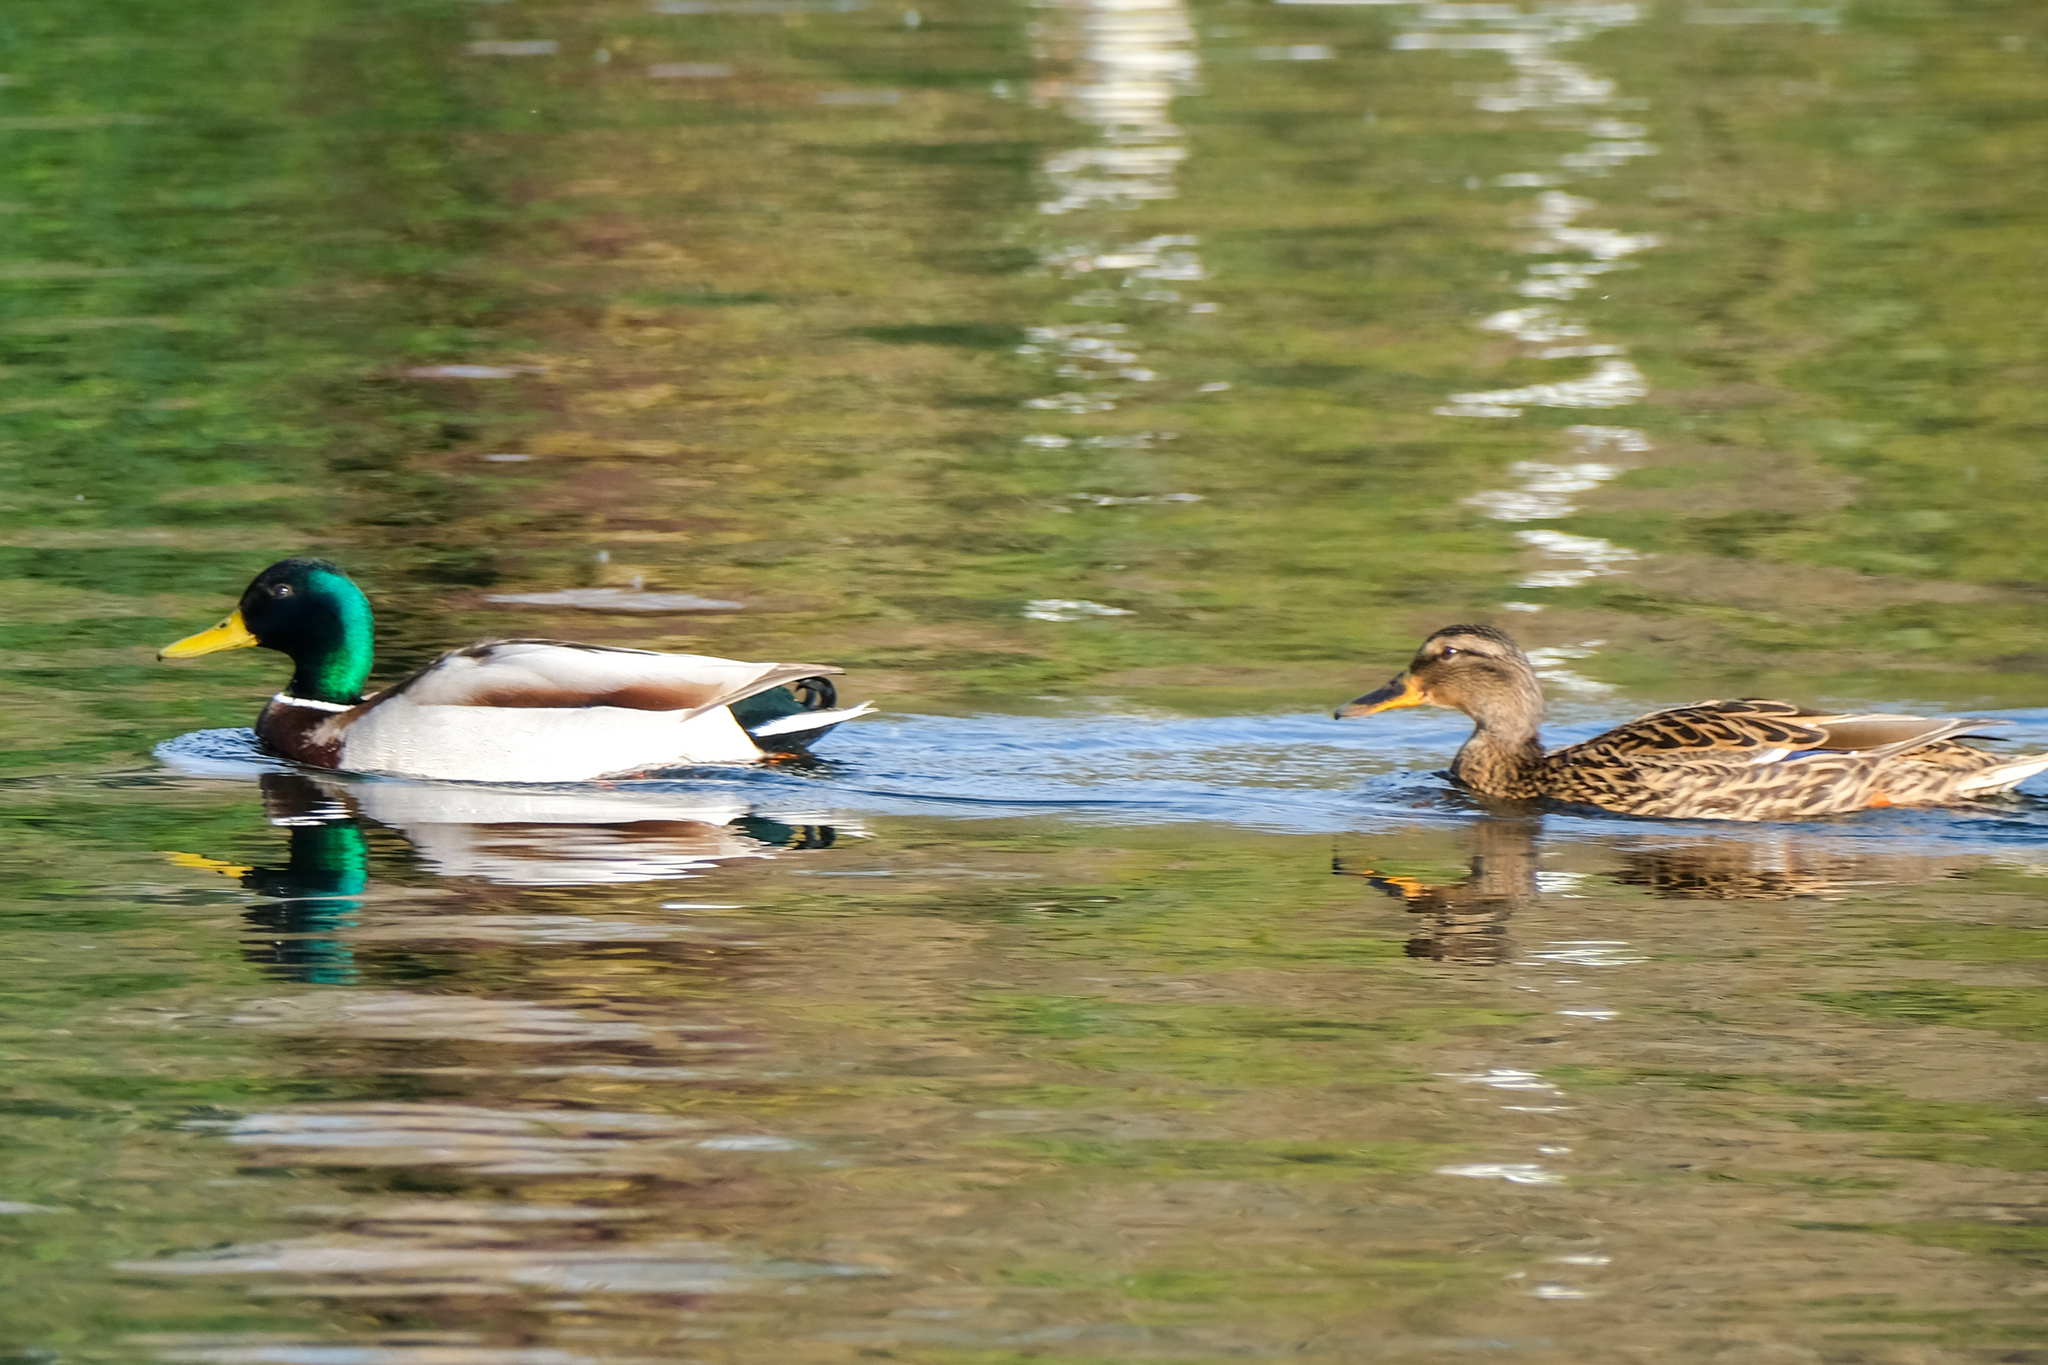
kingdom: Animalia
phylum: Chordata
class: Aves
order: Anseriformes
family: Anatidae
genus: Anas
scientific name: Anas platyrhynchos
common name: Mallard
